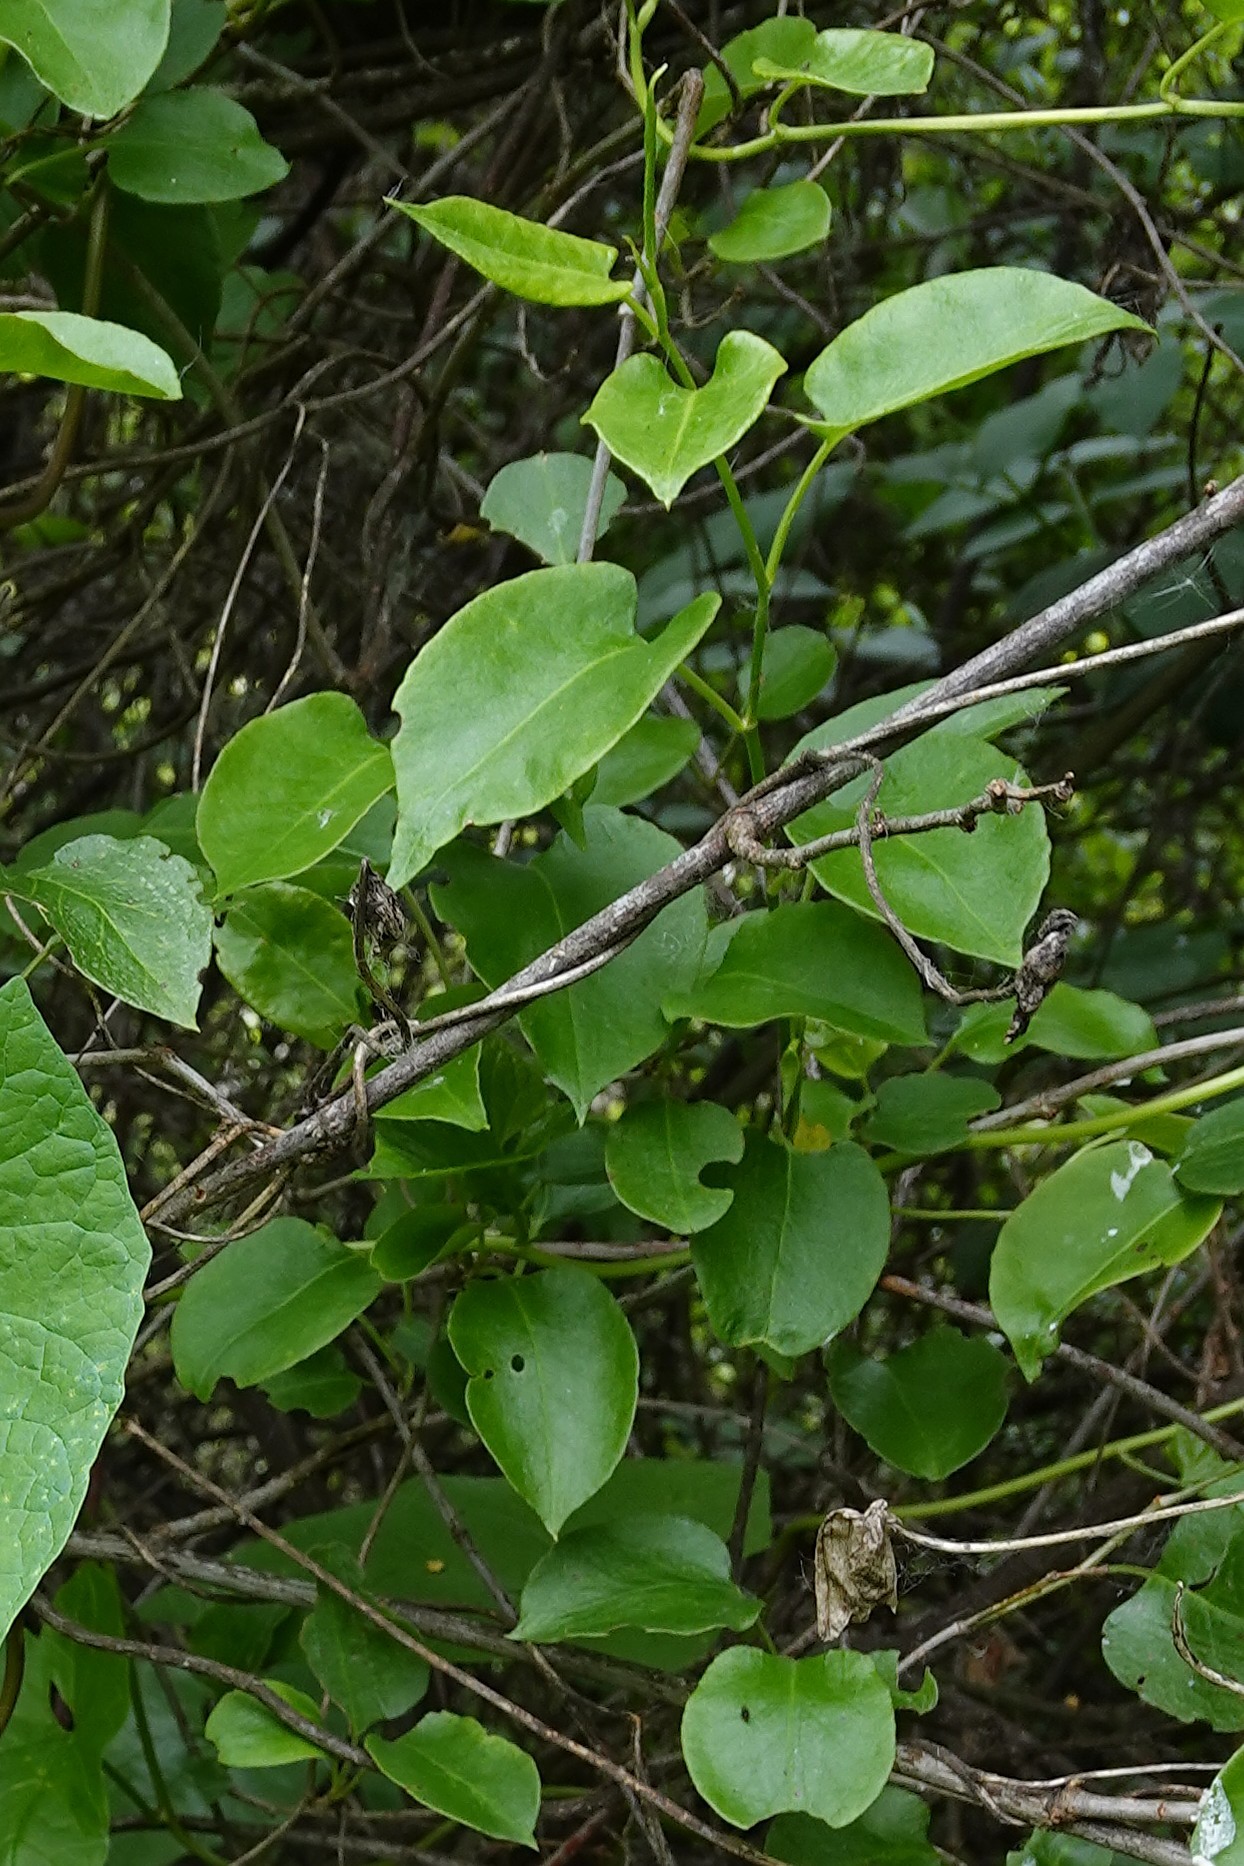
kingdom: Plantae
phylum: Tracheophyta
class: Magnoliopsida
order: Caryophyllales
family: Polygonaceae
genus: Muehlenbeckia
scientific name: Muehlenbeckia australis
